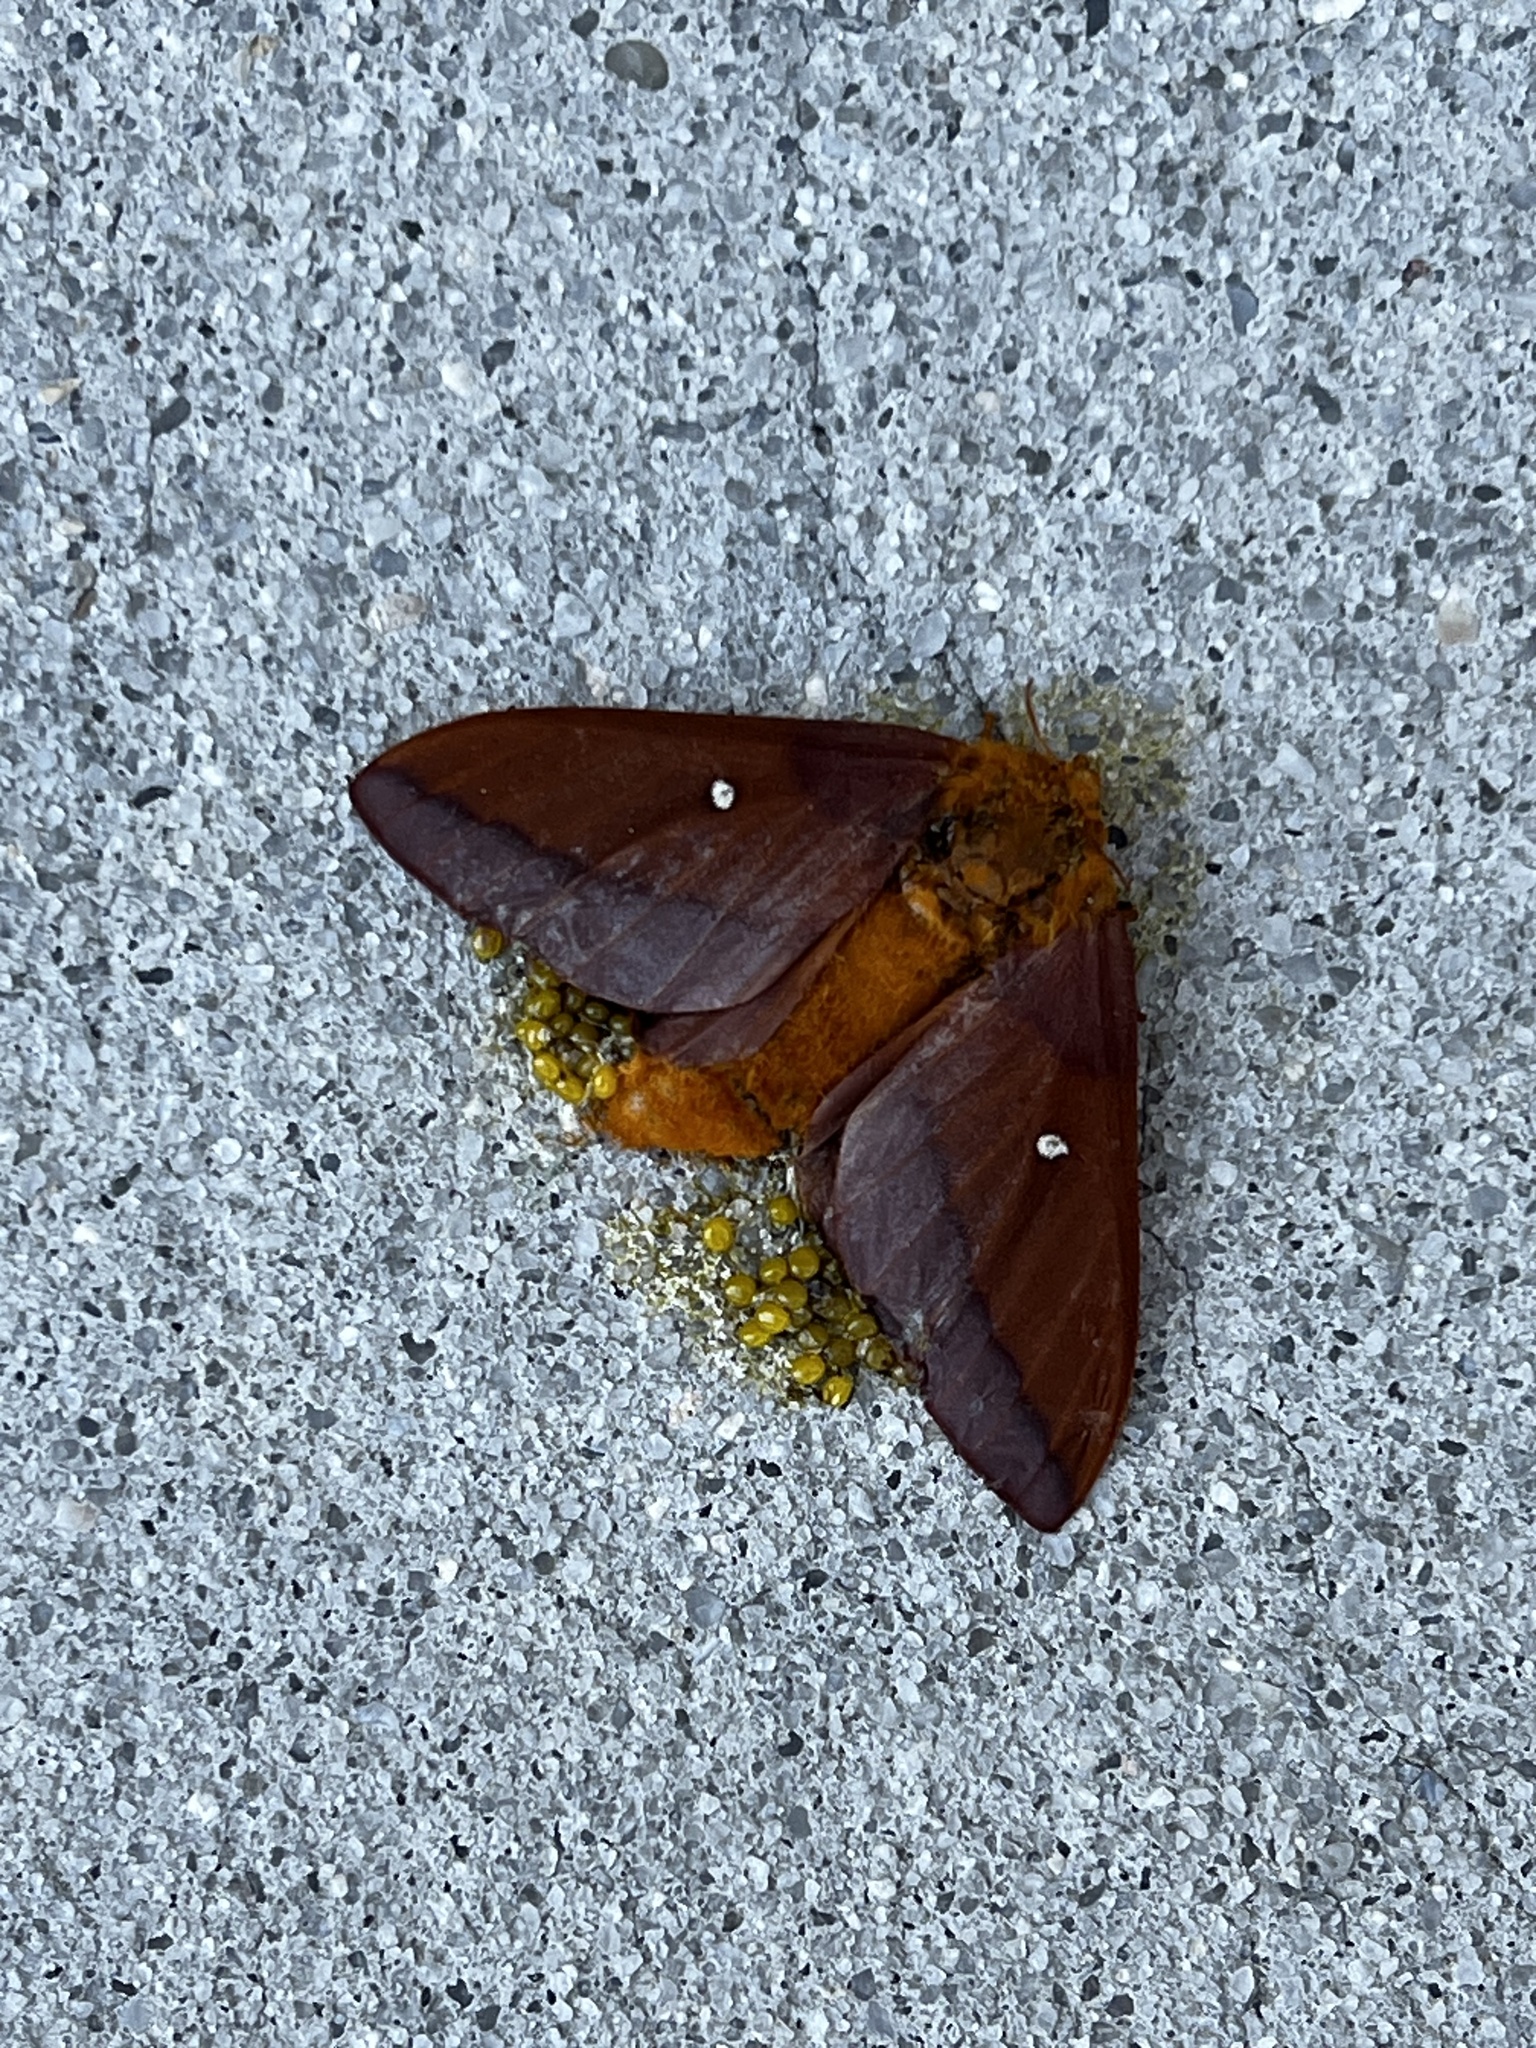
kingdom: Animalia
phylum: Arthropoda
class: Insecta
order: Lepidoptera
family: Saturniidae
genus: Anisota
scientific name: Anisota virginiensis
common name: Pink striped oakworm moth
